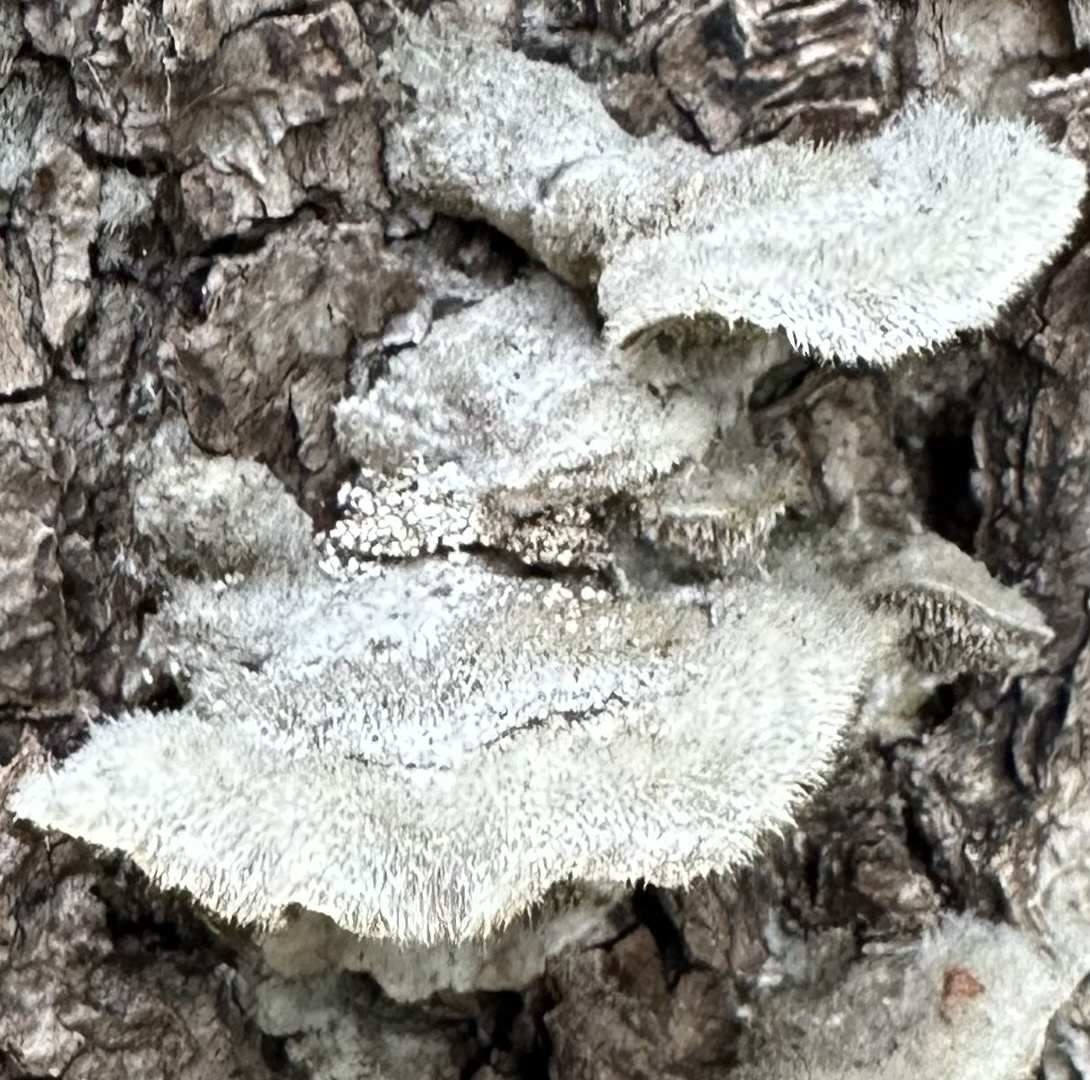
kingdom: Fungi
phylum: Basidiomycota
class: Agaricomycetes
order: Polyporales
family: Cerrenaceae
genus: Cerrena
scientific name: Cerrena unicolor
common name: Mossy maze polypore
